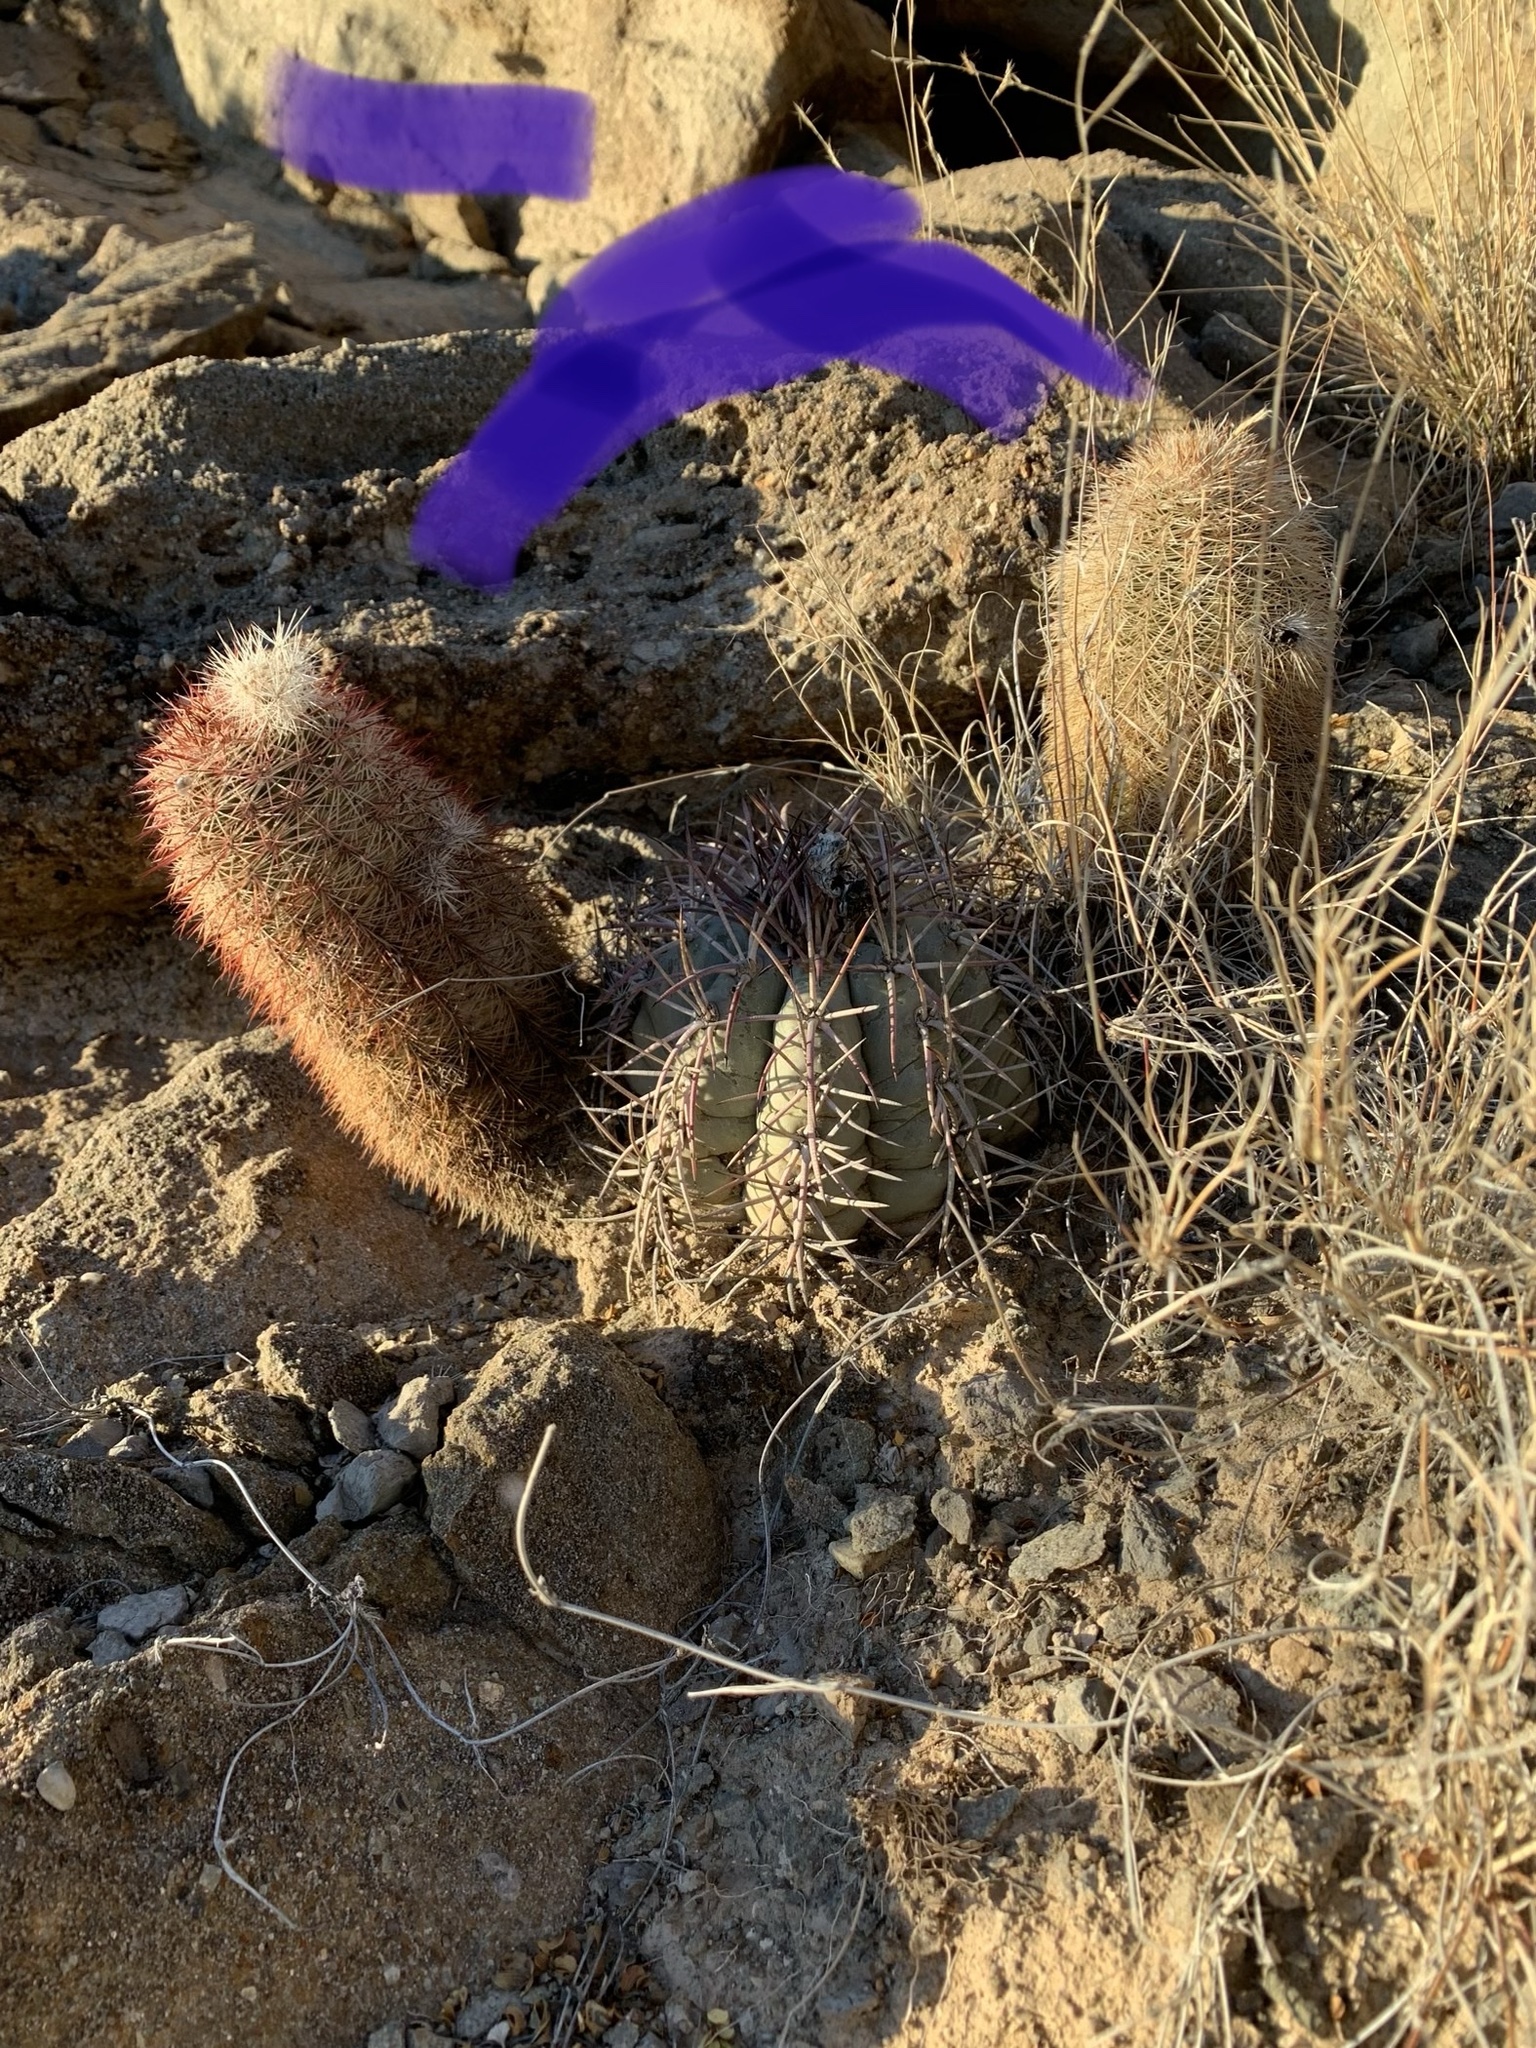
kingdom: Plantae
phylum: Tracheophyta
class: Magnoliopsida
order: Caryophyllales
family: Cactaceae
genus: Echinocereus
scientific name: Echinocereus dasyacanthus
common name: Spiny hedgehog cactus
